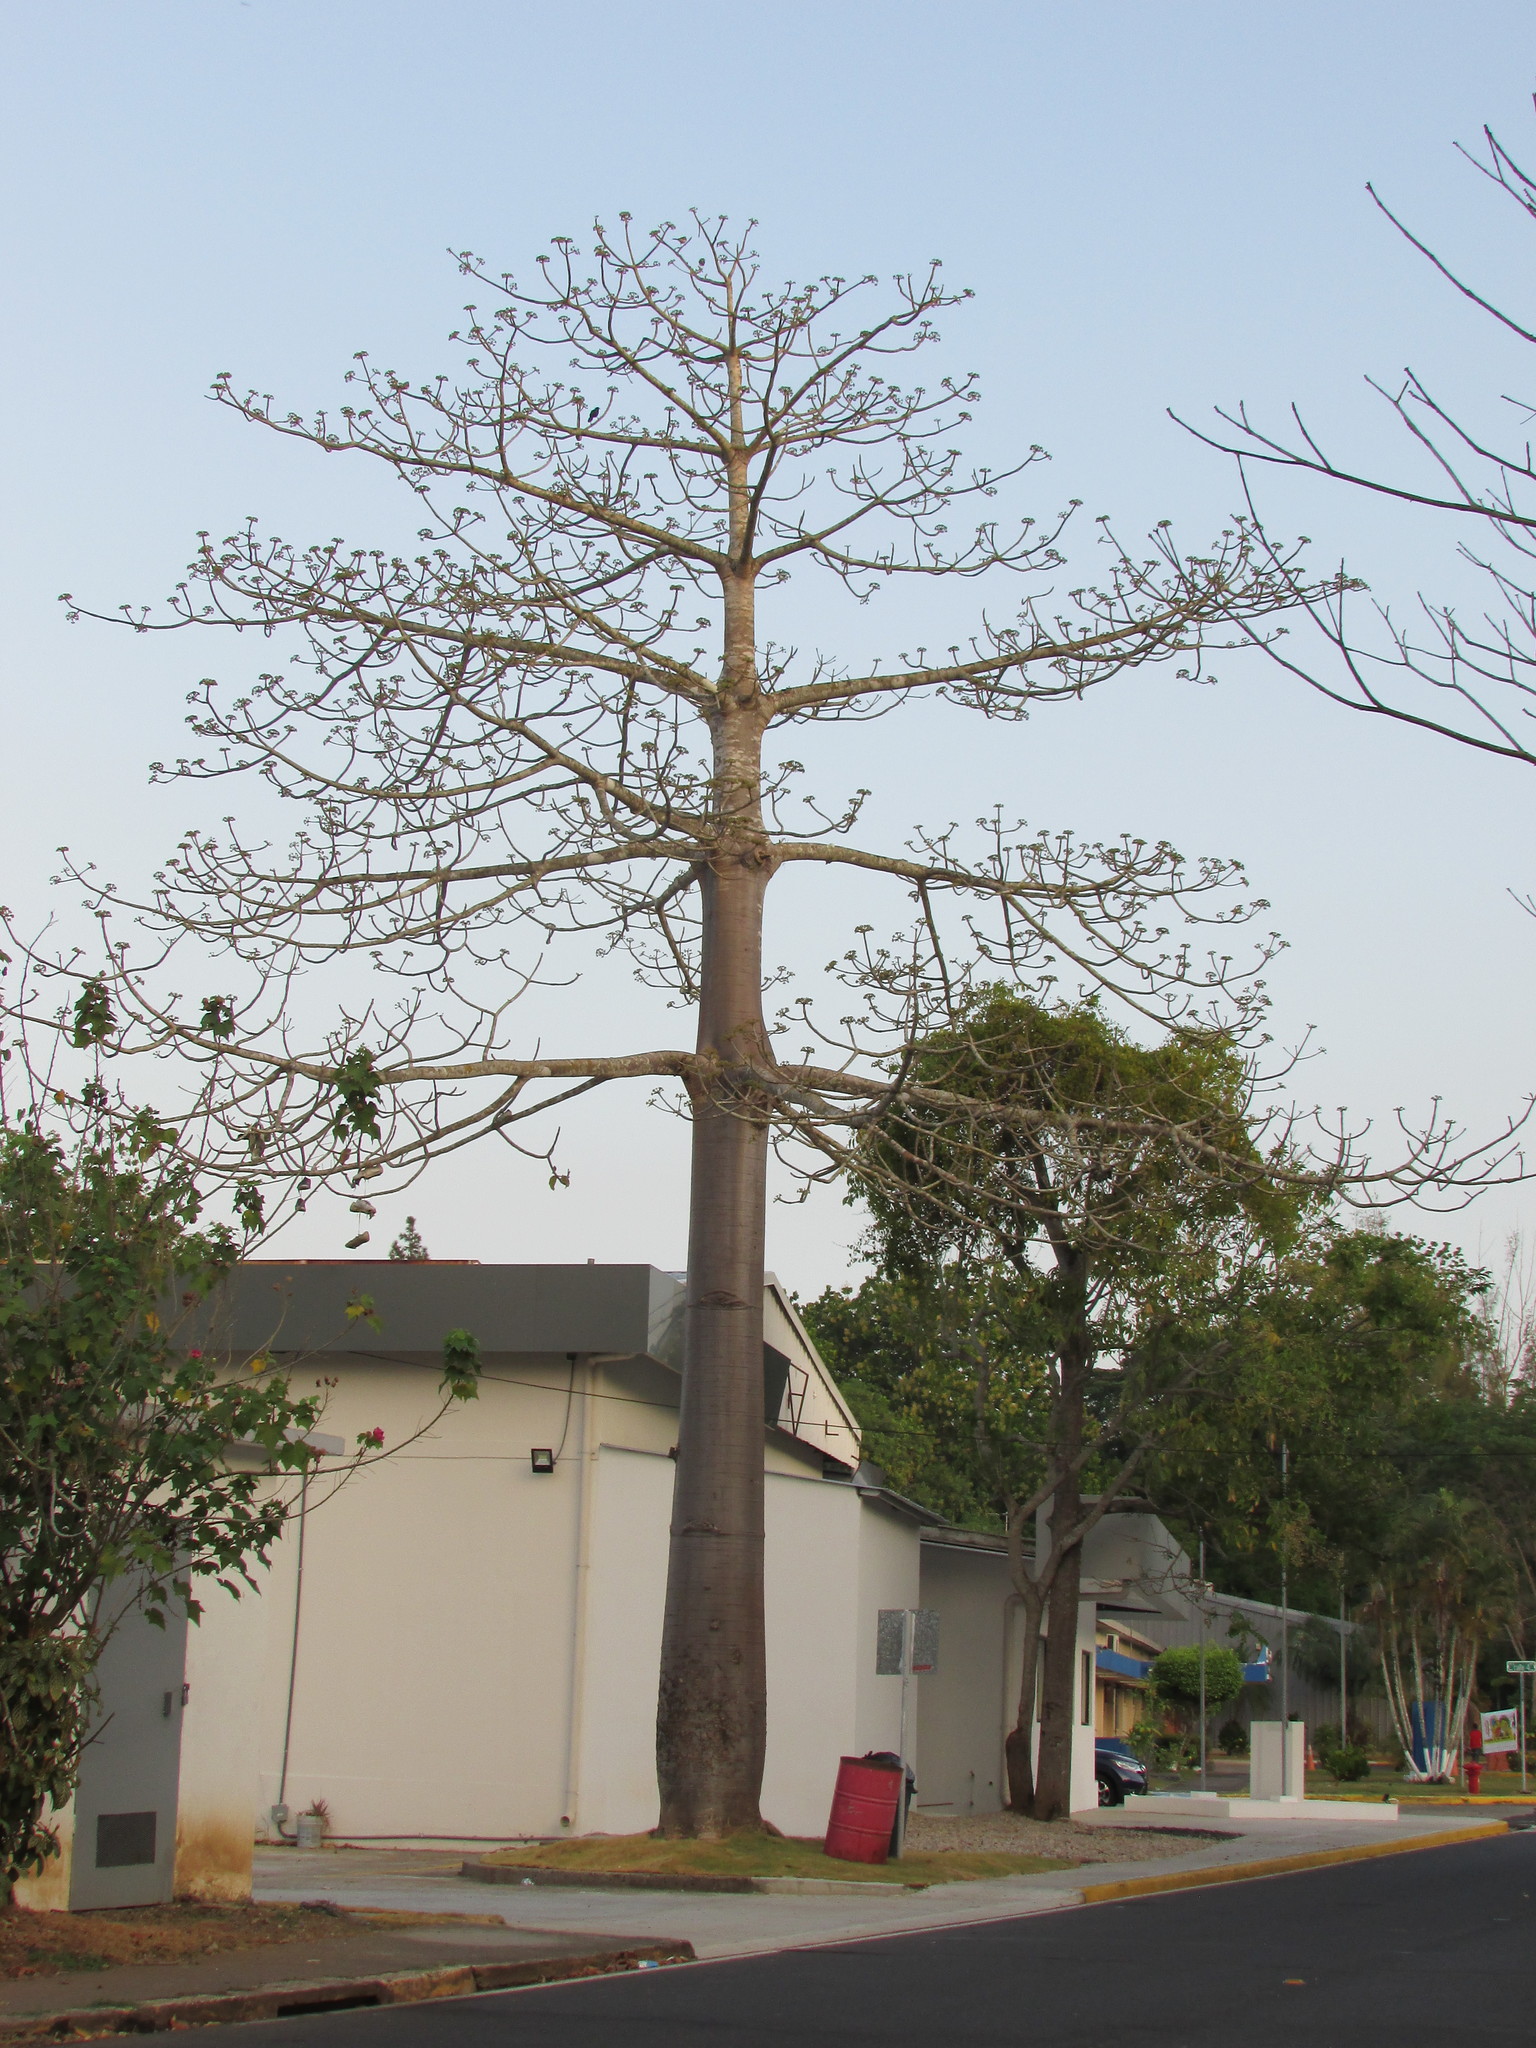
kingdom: Plantae
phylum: Tracheophyta
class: Magnoliopsida
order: Malvales
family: Malvaceae
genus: Cavanillesia
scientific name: Cavanillesia platanifolia
